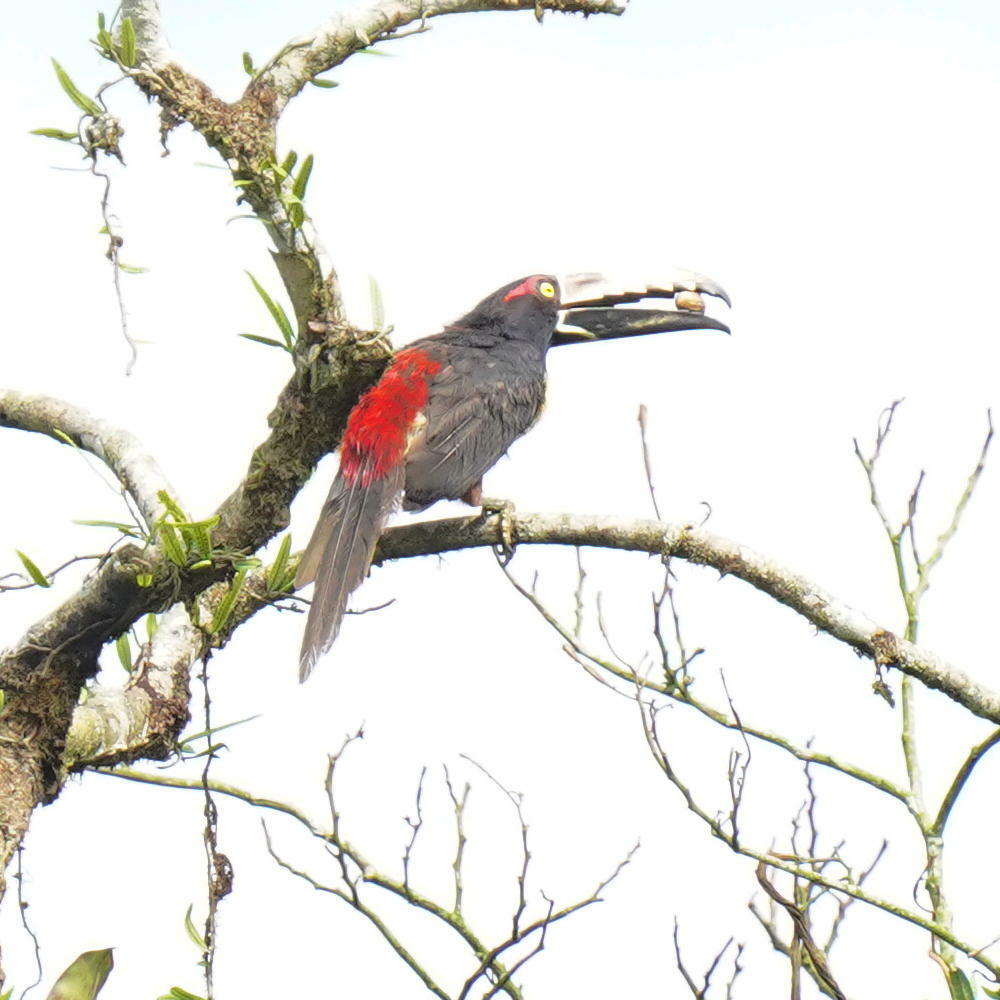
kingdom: Animalia
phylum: Chordata
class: Aves
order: Piciformes
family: Ramphastidae
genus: Pteroglossus
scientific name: Pteroglossus torquatus
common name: Collared aracari
